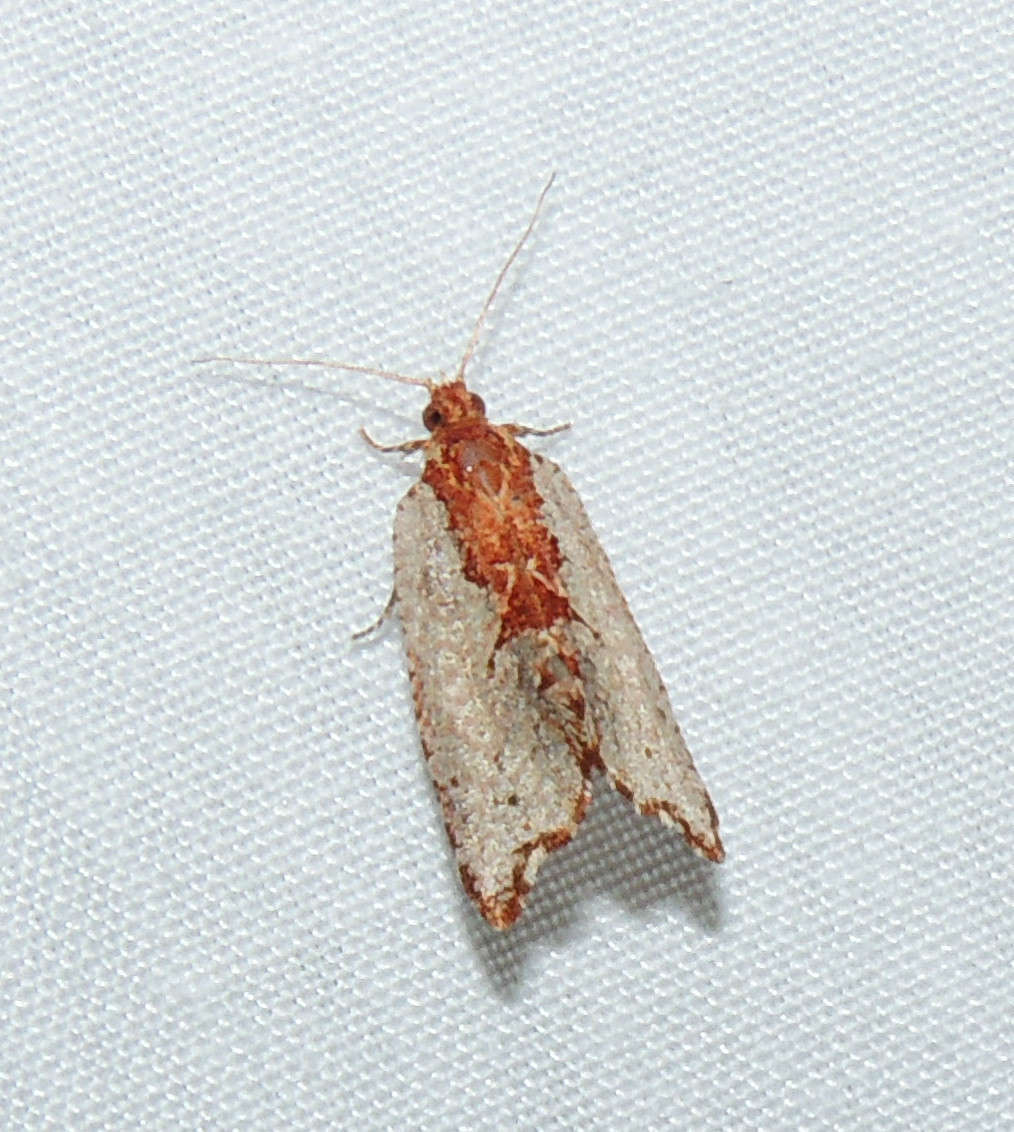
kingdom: Animalia
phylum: Arthropoda
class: Insecta
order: Lepidoptera
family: Tortricidae
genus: Glyphidoptera
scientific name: Glyphidoptera polymita
